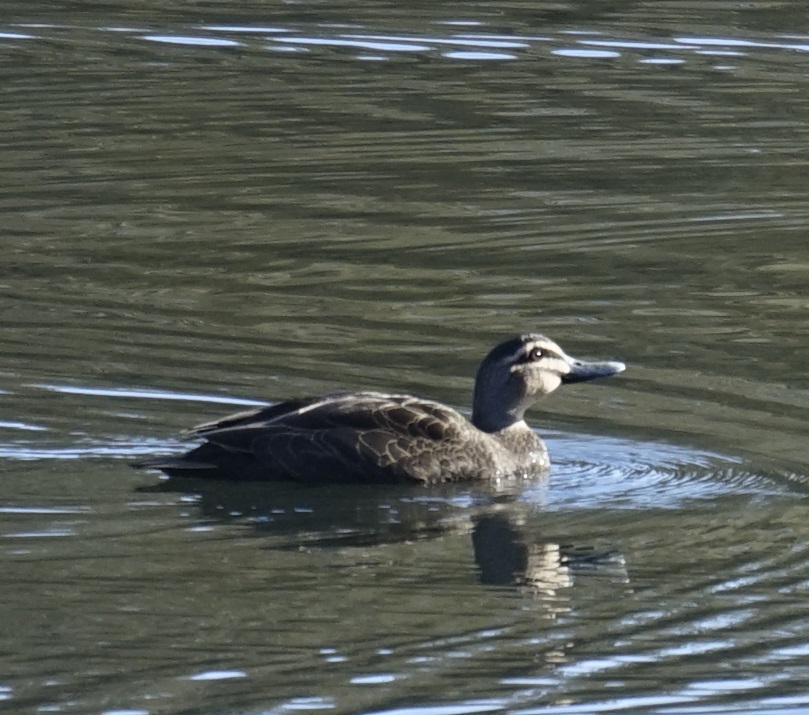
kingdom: Animalia
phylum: Chordata
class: Aves
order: Anseriformes
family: Anatidae
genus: Anas
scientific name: Anas superciliosa
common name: Pacific black duck
